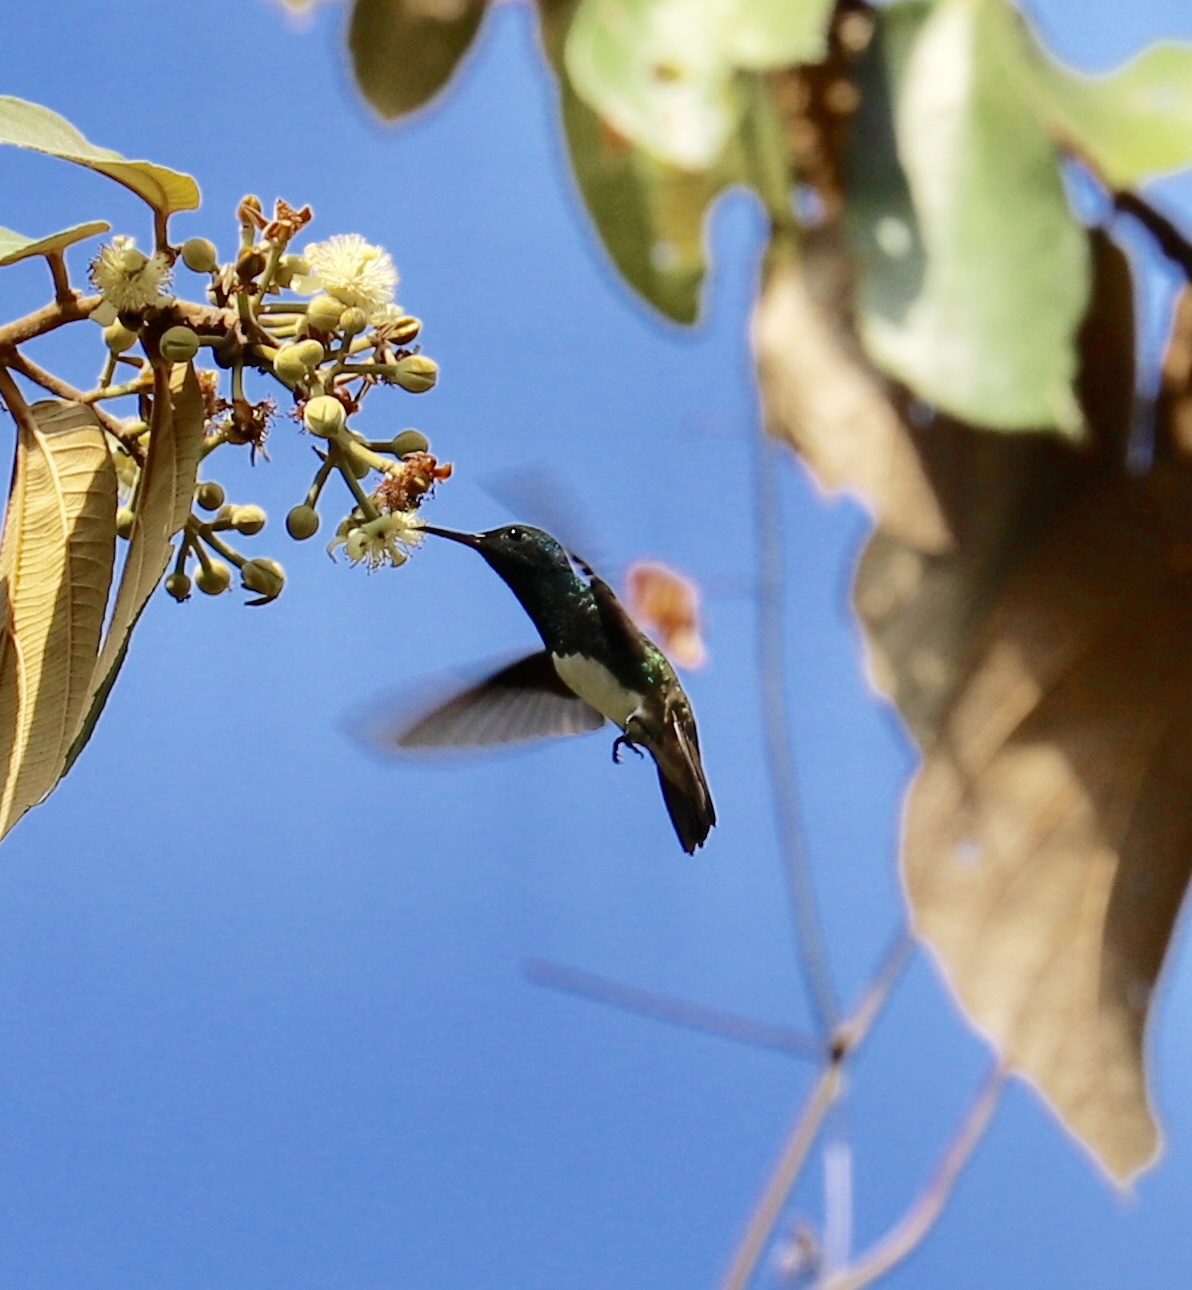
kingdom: Animalia
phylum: Chordata
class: Aves
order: Apodiformes
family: Trochilidae
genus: Saucerottia
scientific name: Saucerottia edward
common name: Snowy-bellied hummingbird
